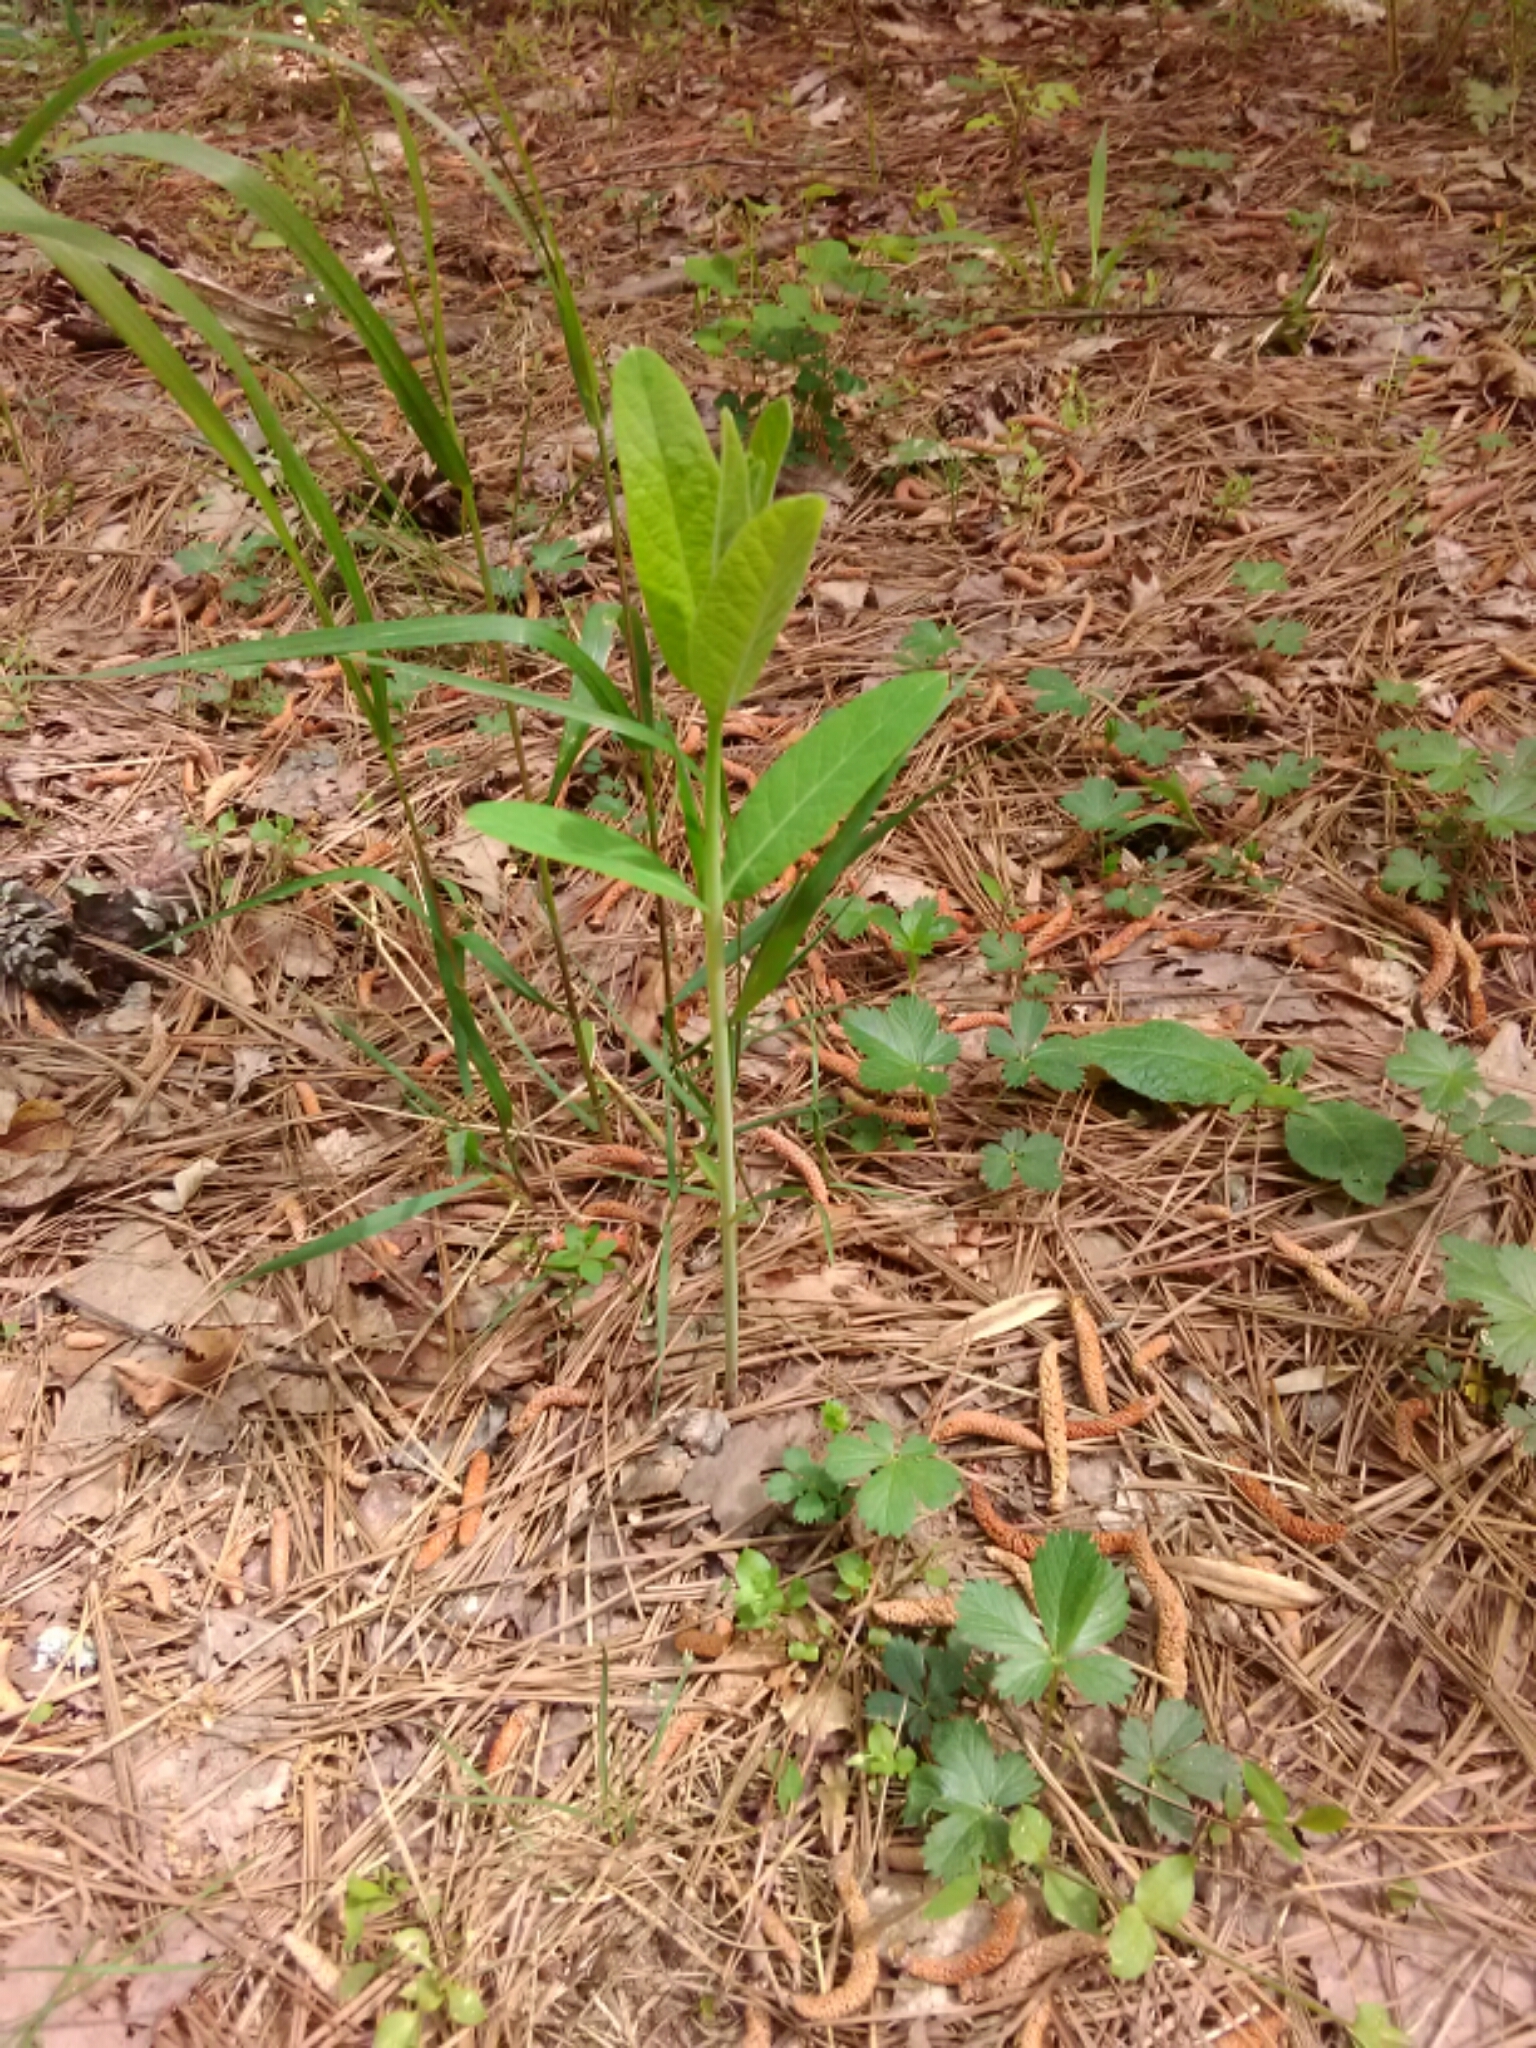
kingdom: Plantae
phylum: Tracheophyta
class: Magnoliopsida
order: Gentianales
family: Apocynaceae
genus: Apocynum
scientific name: Apocynum cannabinum
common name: Hemp dogbane
